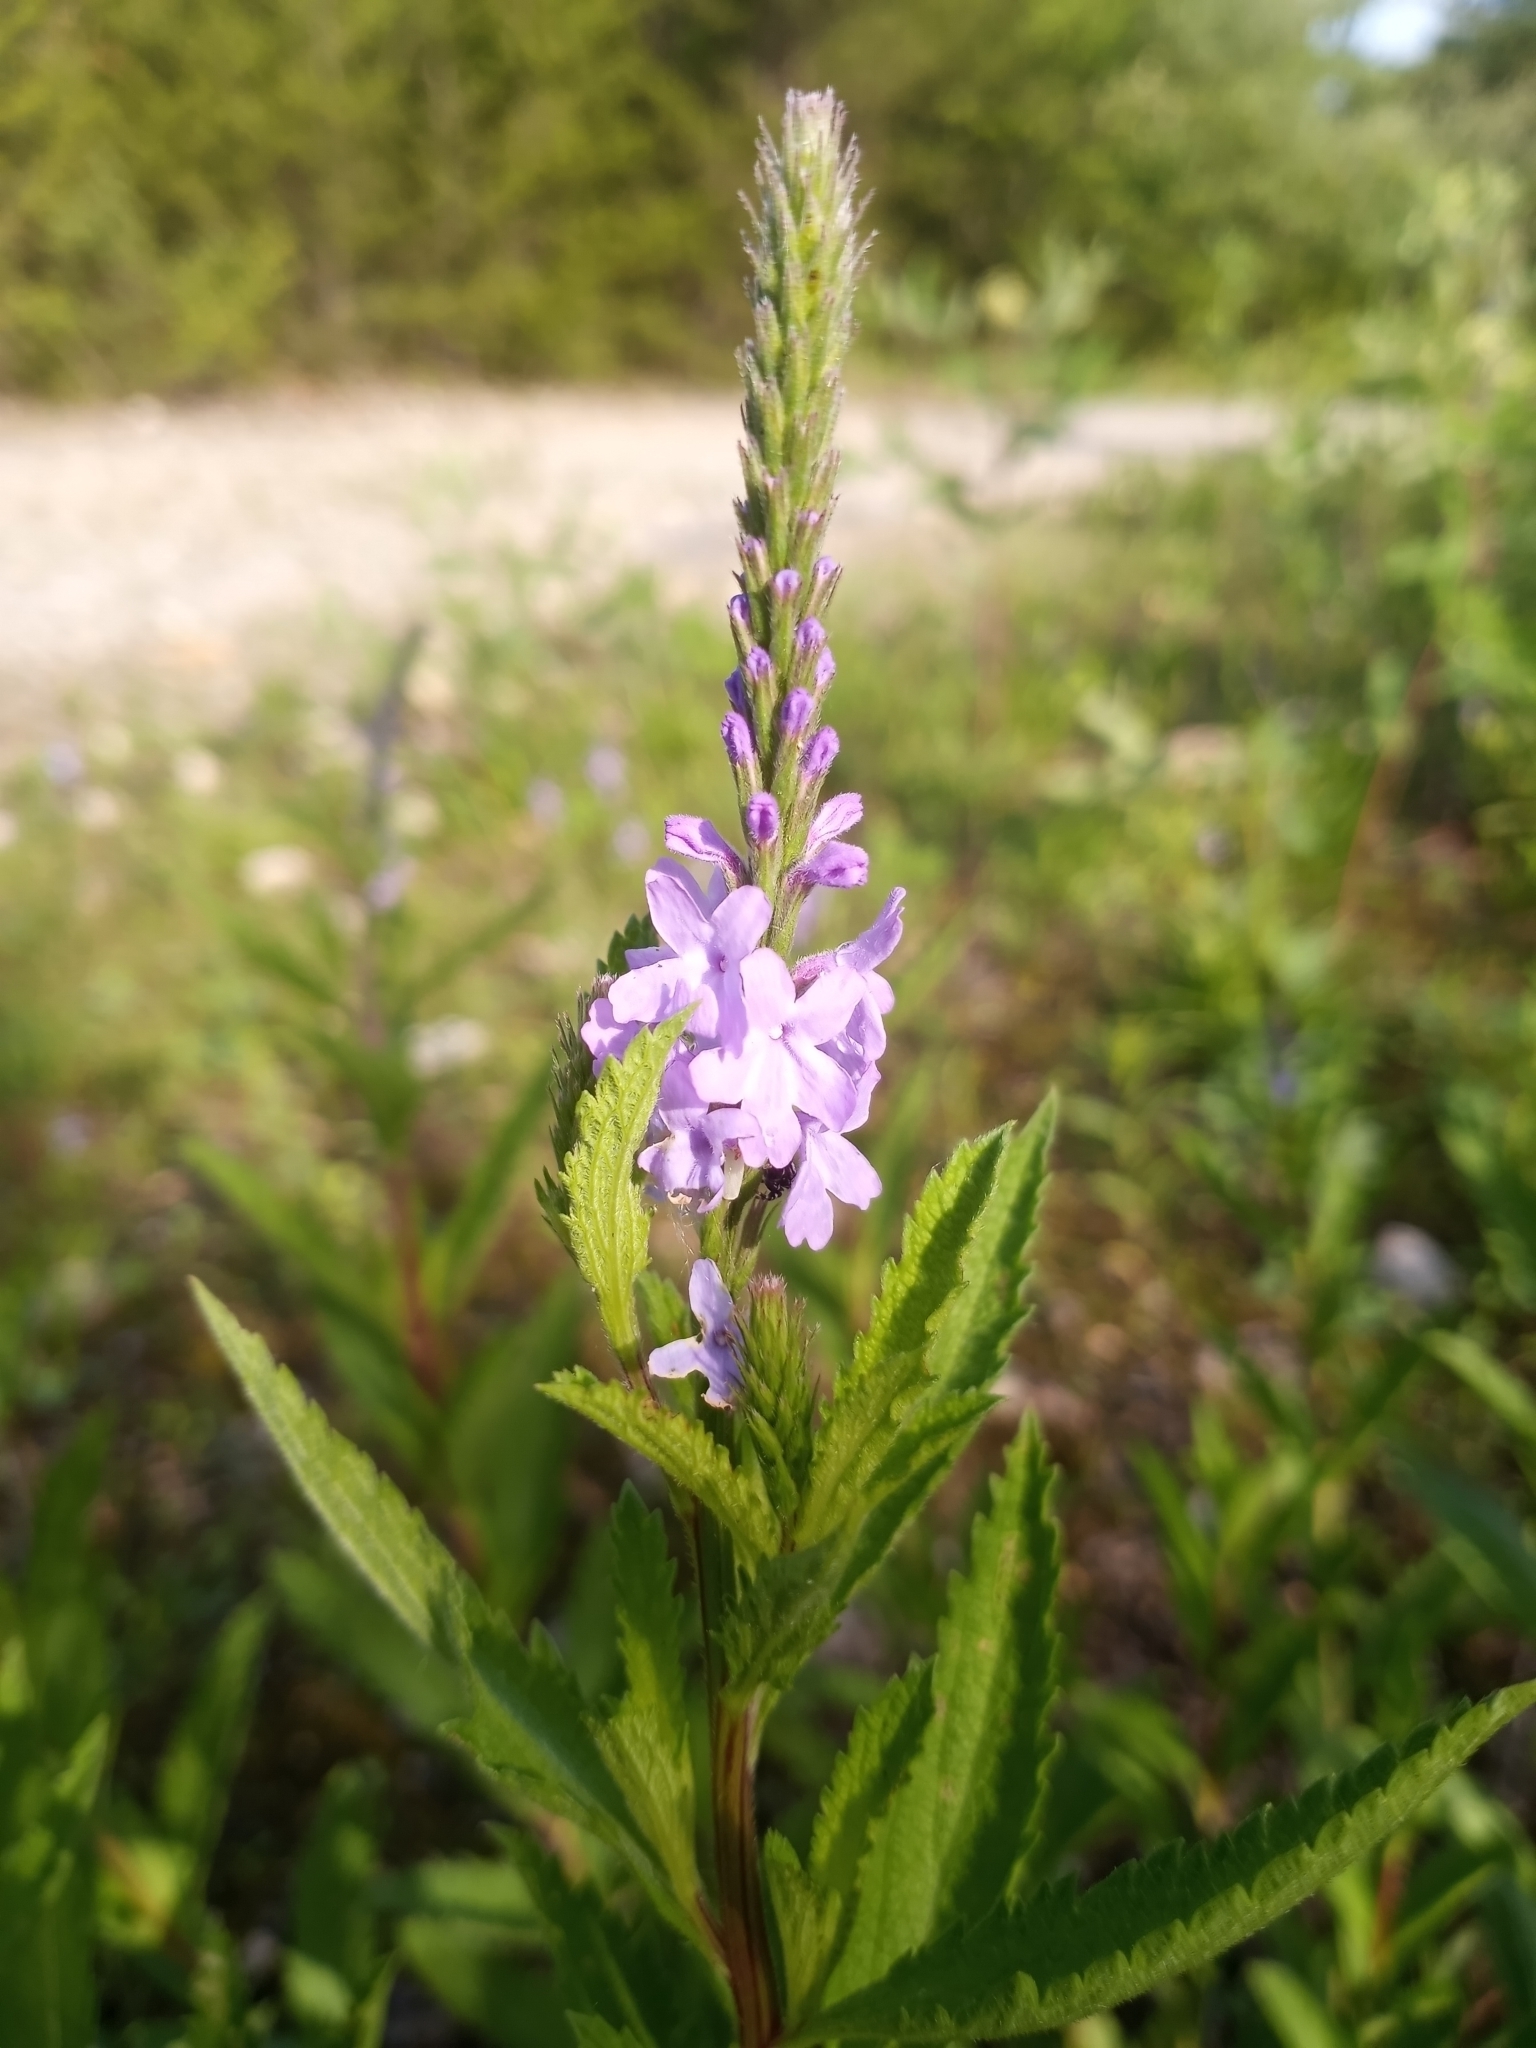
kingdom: Plantae
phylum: Tracheophyta
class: Magnoliopsida
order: Lamiales
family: Verbenaceae
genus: Verbena
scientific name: Verbena stricta
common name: Hoary vervain
